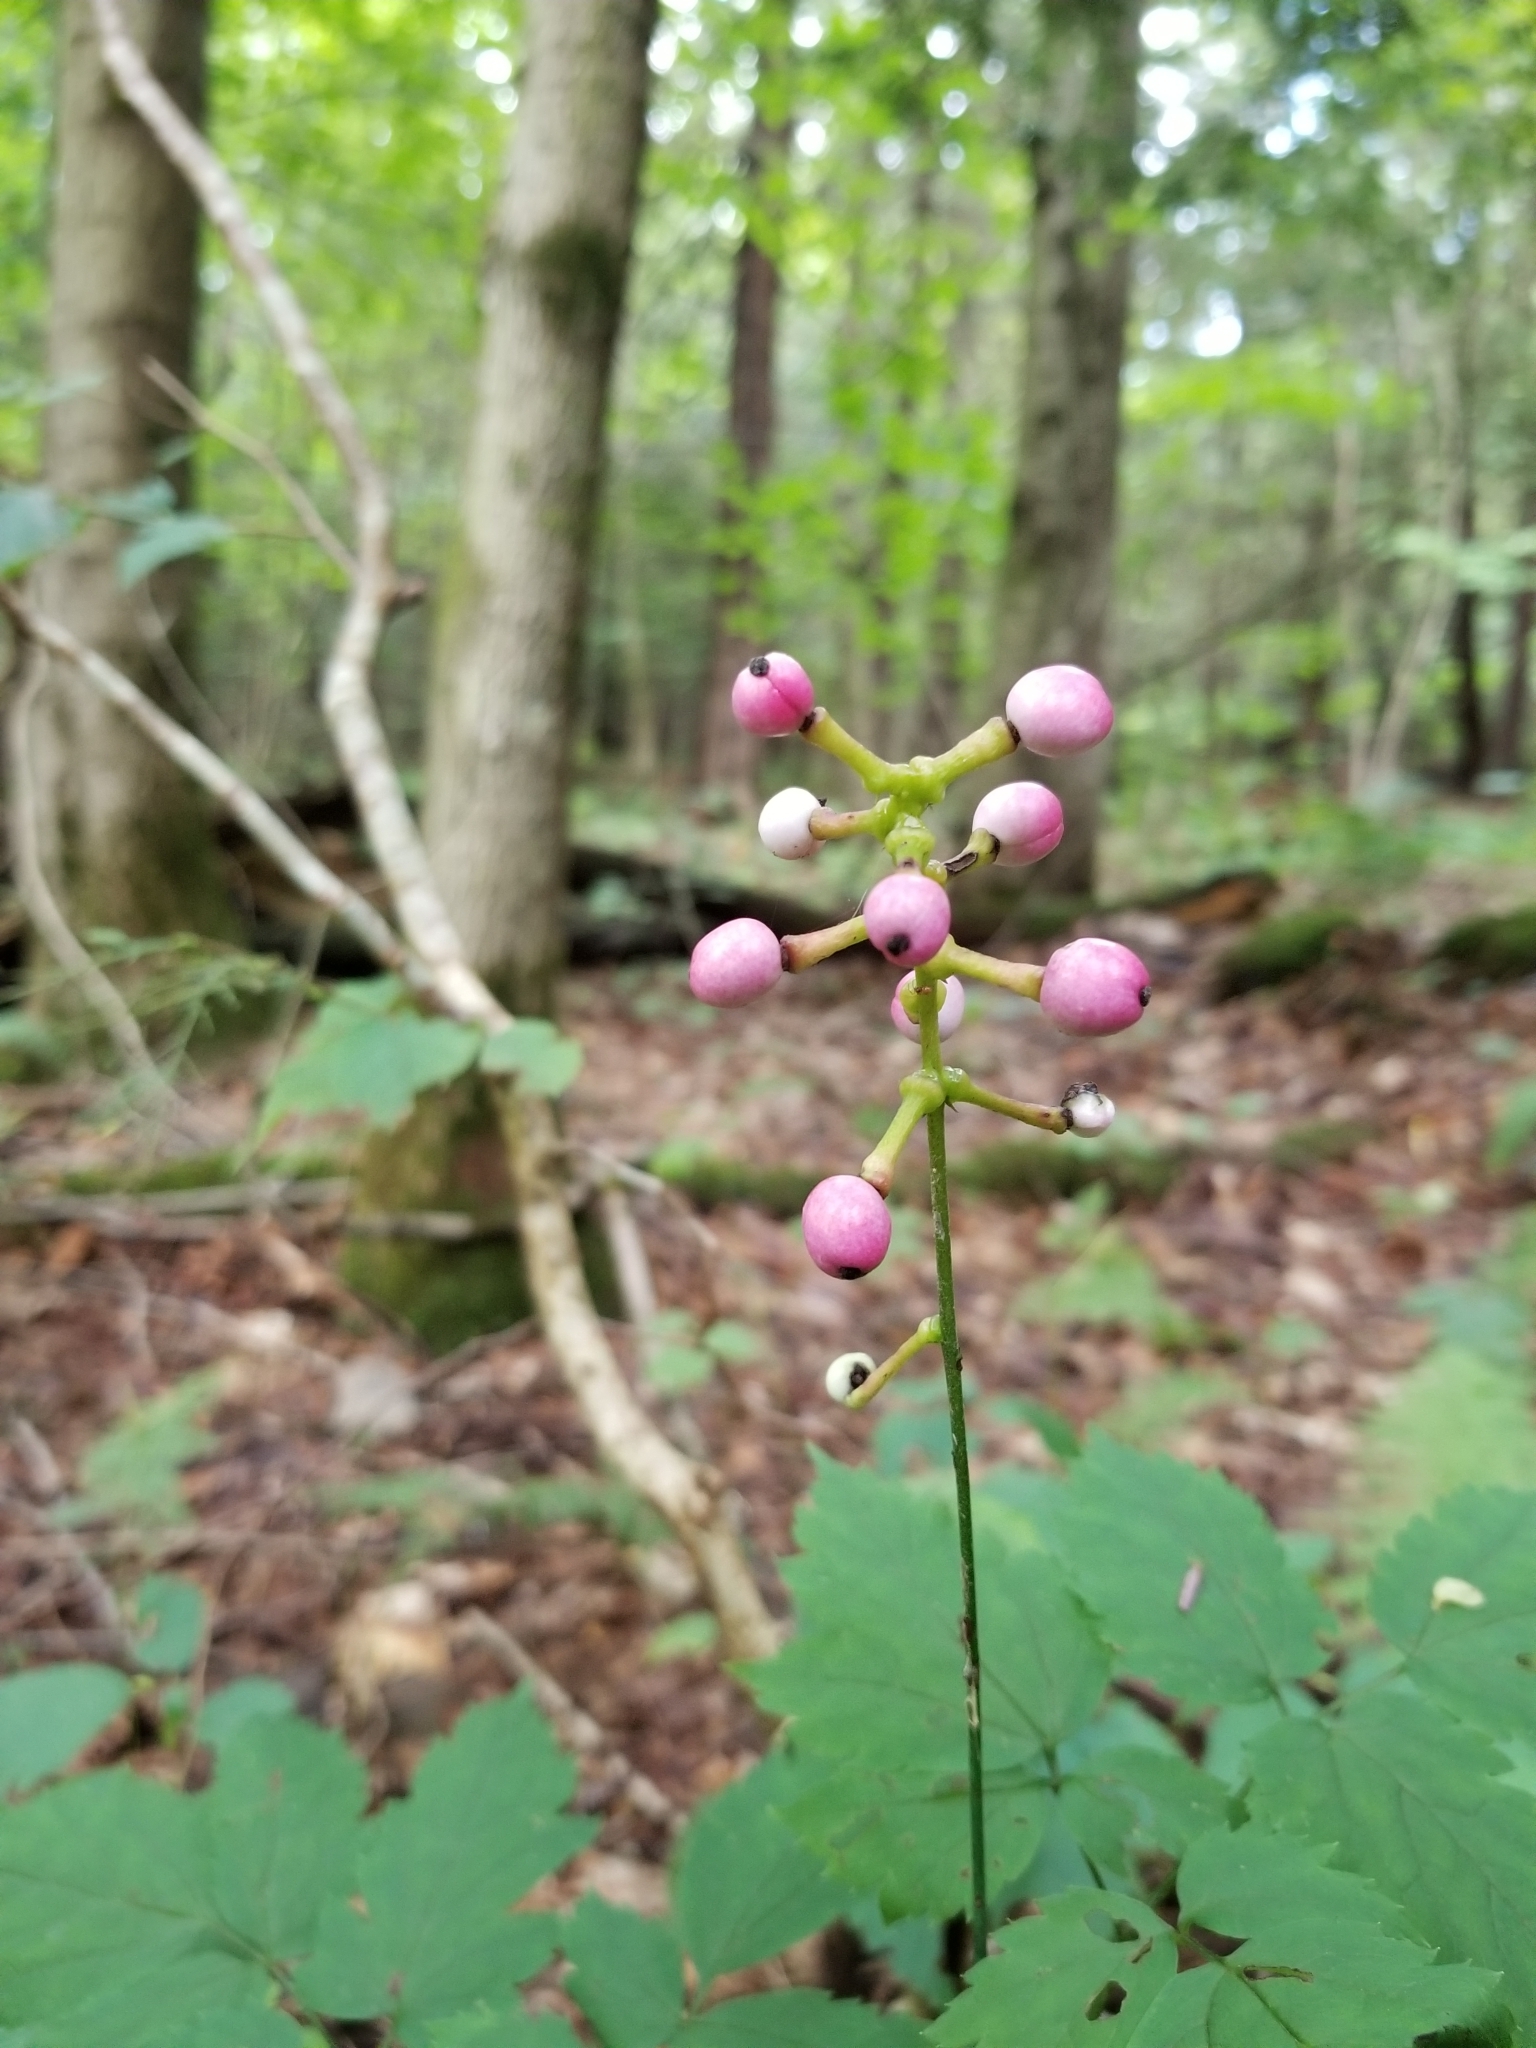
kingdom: Plantae
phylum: Tracheophyta
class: Magnoliopsida
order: Ranunculales
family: Ranunculaceae
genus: Actaea
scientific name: Actaea pachypoda
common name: Doll's-eyes
